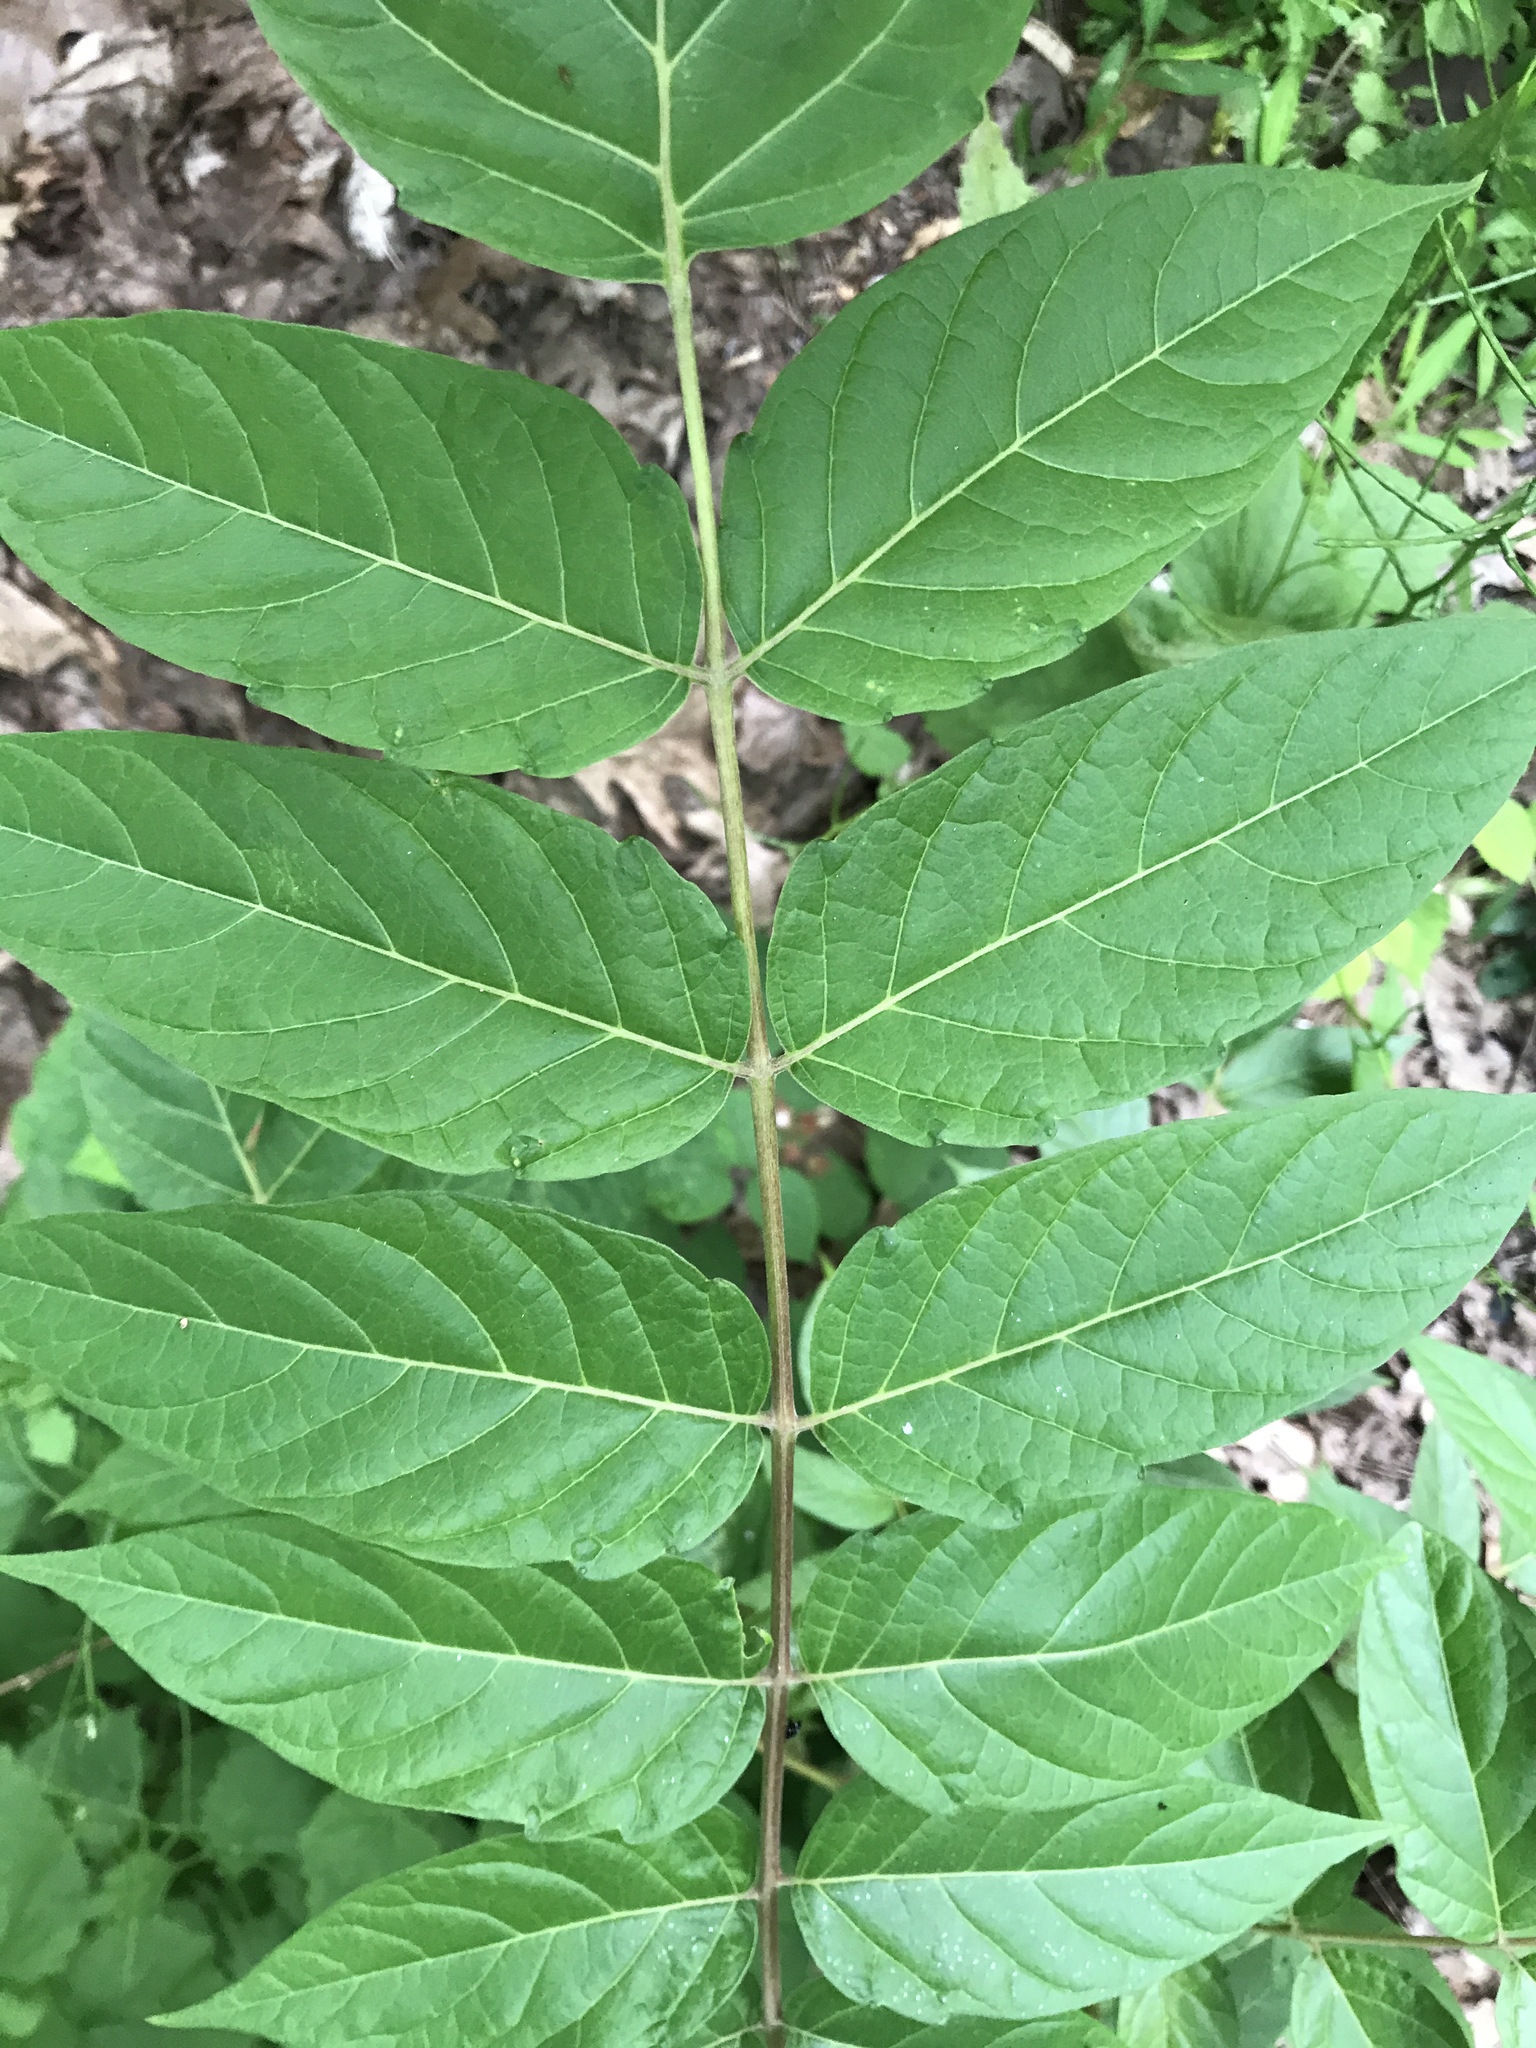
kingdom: Plantae
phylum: Tracheophyta
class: Magnoliopsida
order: Sapindales
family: Simaroubaceae
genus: Ailanthus
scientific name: Ailanthus altissima
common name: Tree-of-heaven
